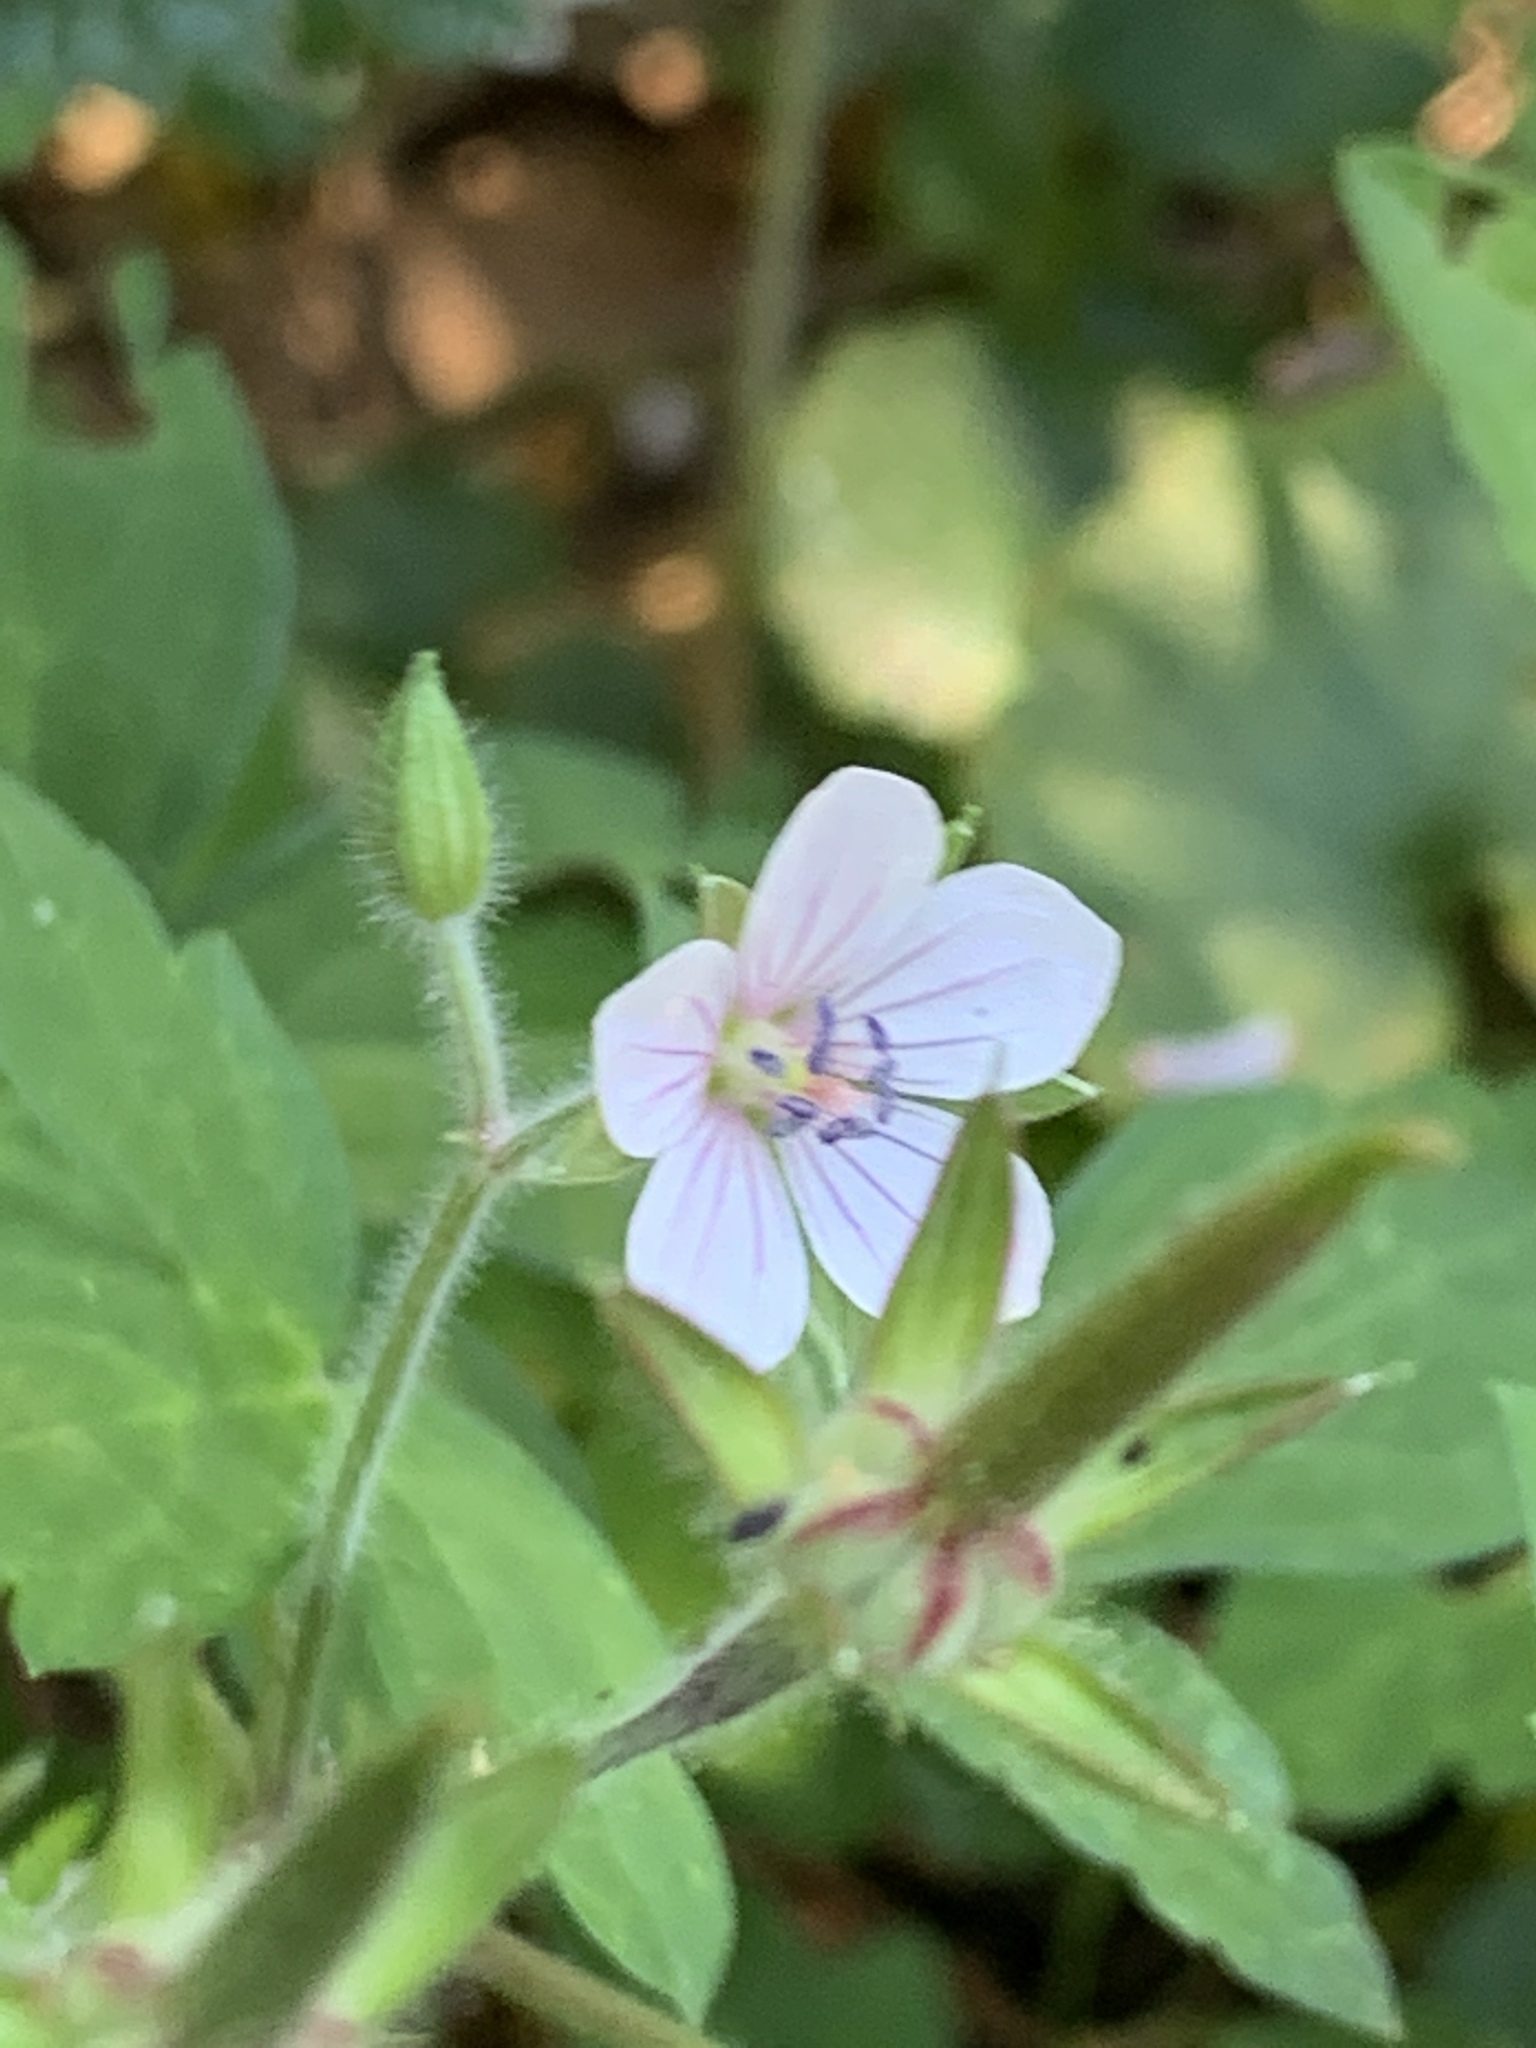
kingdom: Plantae
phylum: Tracheophyta
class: Magnoliopsida
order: Geraniales
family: Geraniaceae
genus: Geranium
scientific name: Geranium thunbergii
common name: Dewdrop crane's-bill
